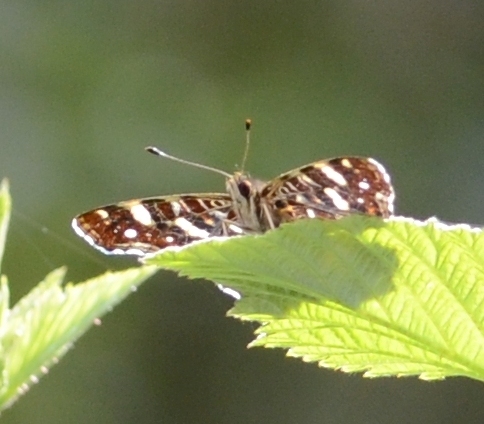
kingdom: Animalia
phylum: Arthropoda
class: Insecta
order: Lepidoptera
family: Nymphalidae
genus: Araschnia
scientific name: Araschnia levana
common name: Map butterfly
